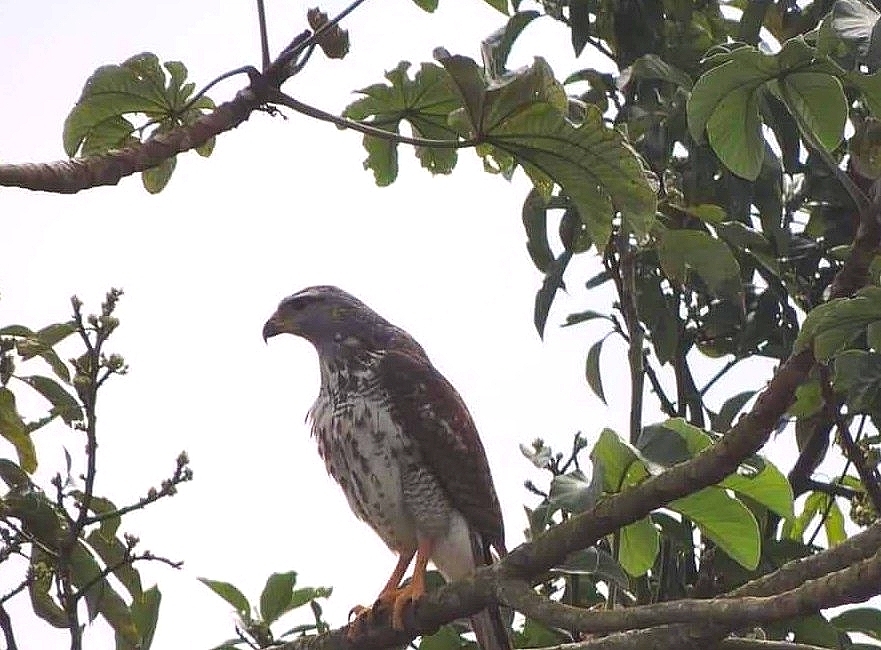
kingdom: Animalia
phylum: Chordata
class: Aves
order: Accipitriformes
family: Accipitridae
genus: Buteo
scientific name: Buteo nitidus
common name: Grey-lined hawk
